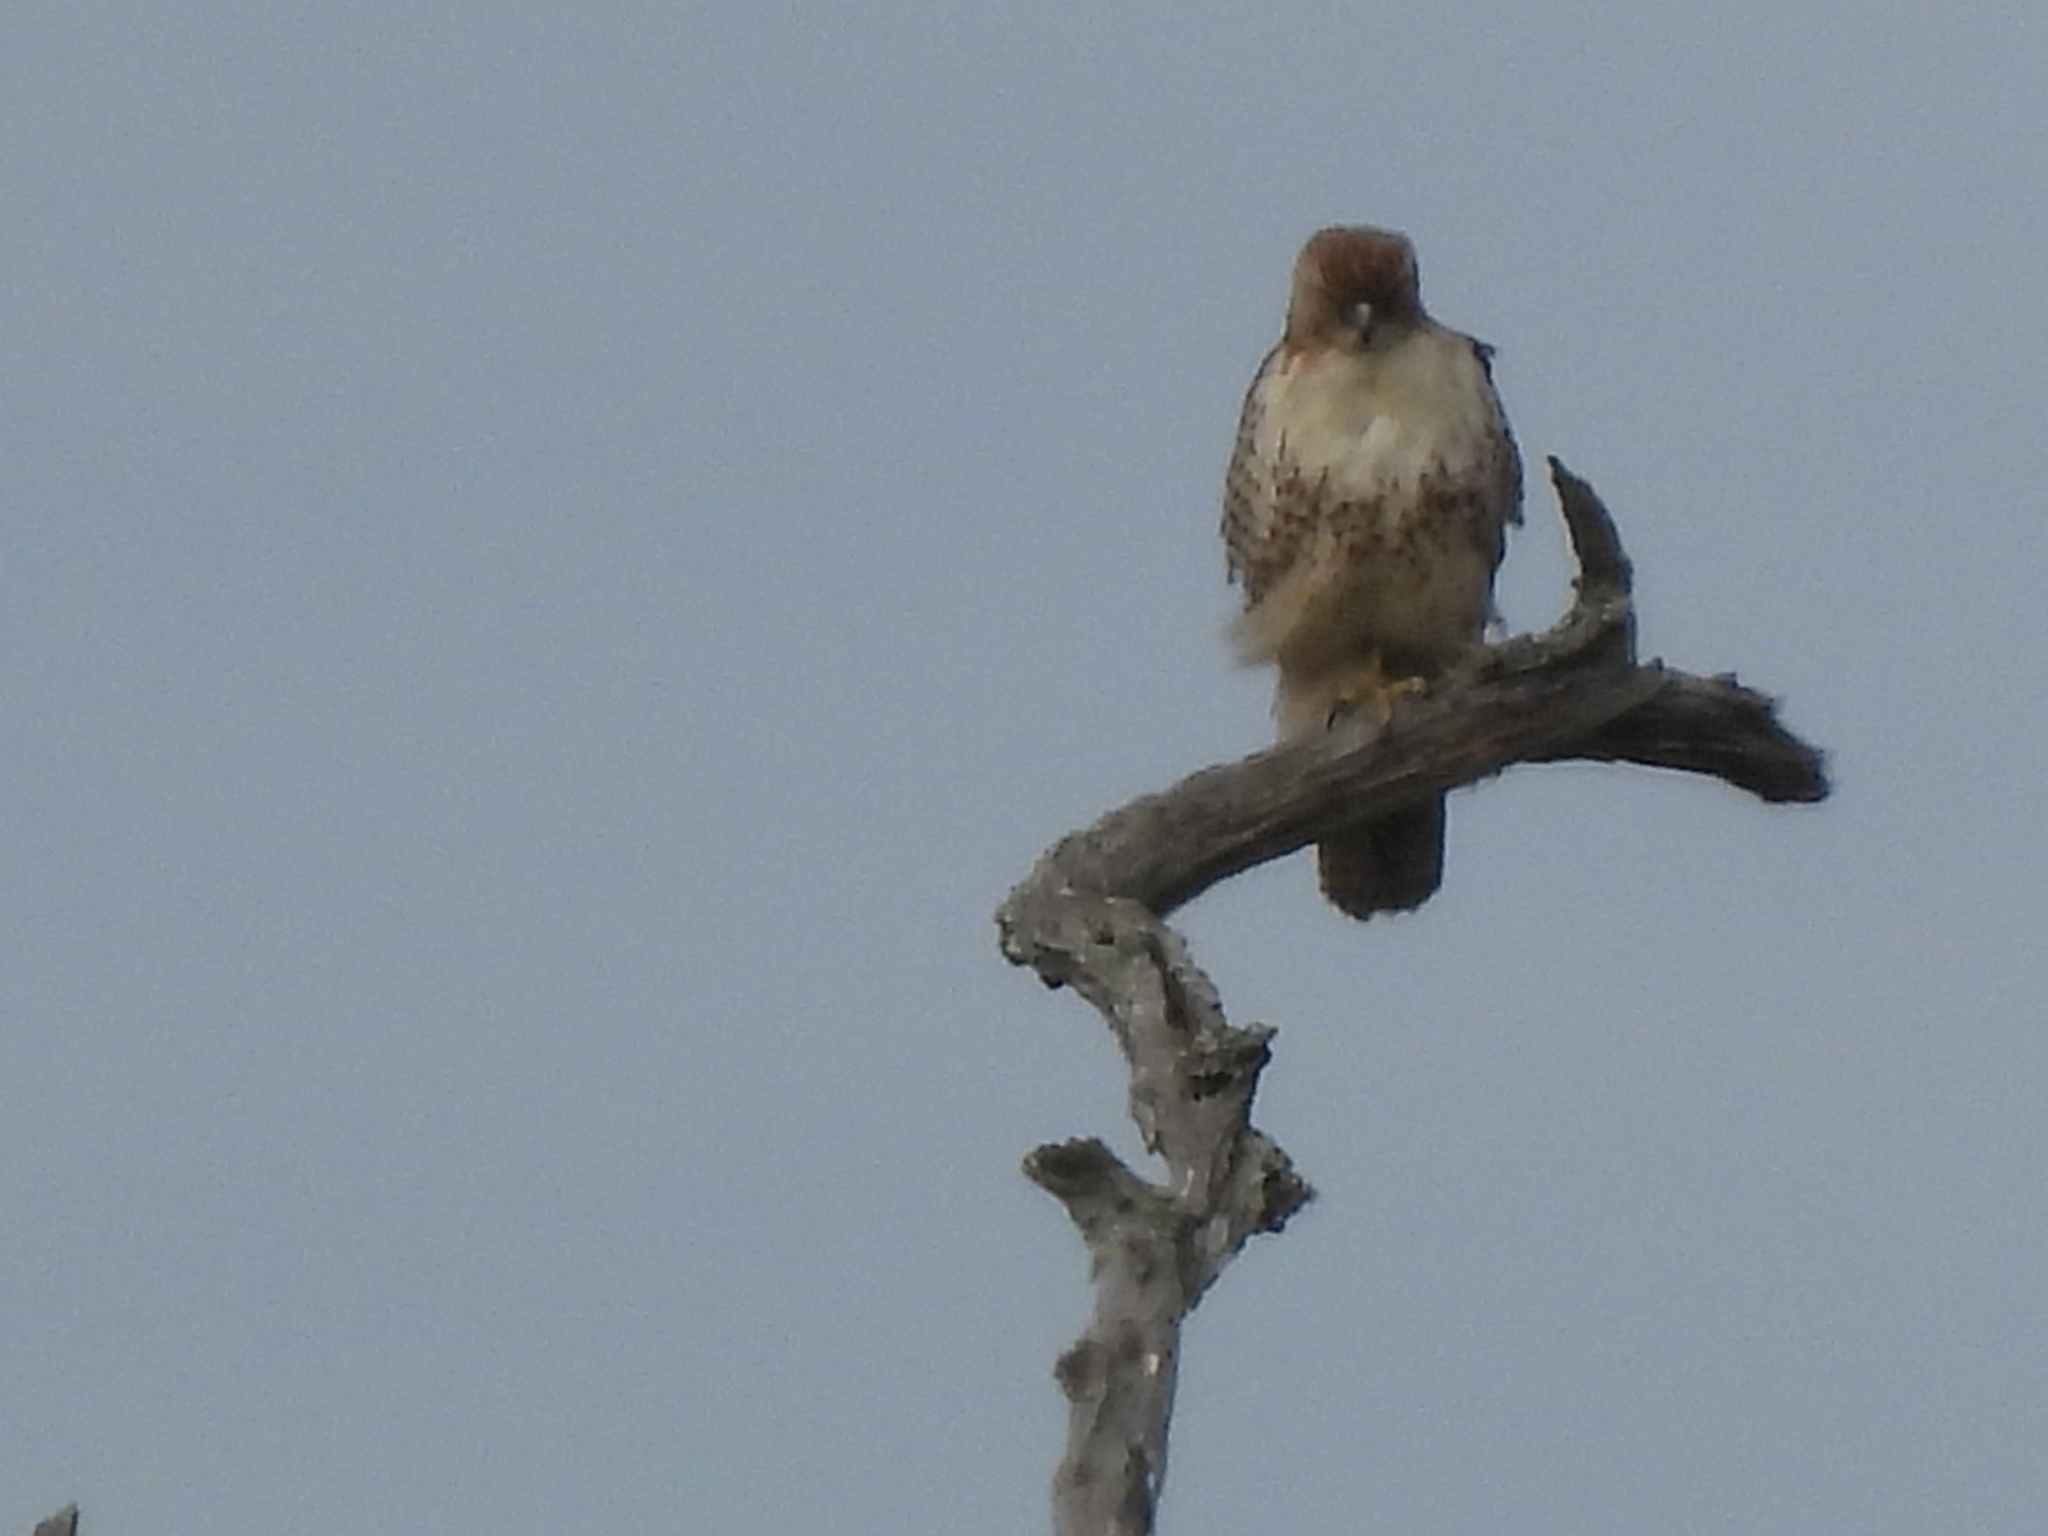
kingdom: Animalia
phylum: Chordata
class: Aves
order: Accipitriformes
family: Accipitridae
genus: Buteo
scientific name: Buteo jamaicensis
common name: Red-tailed hawk
